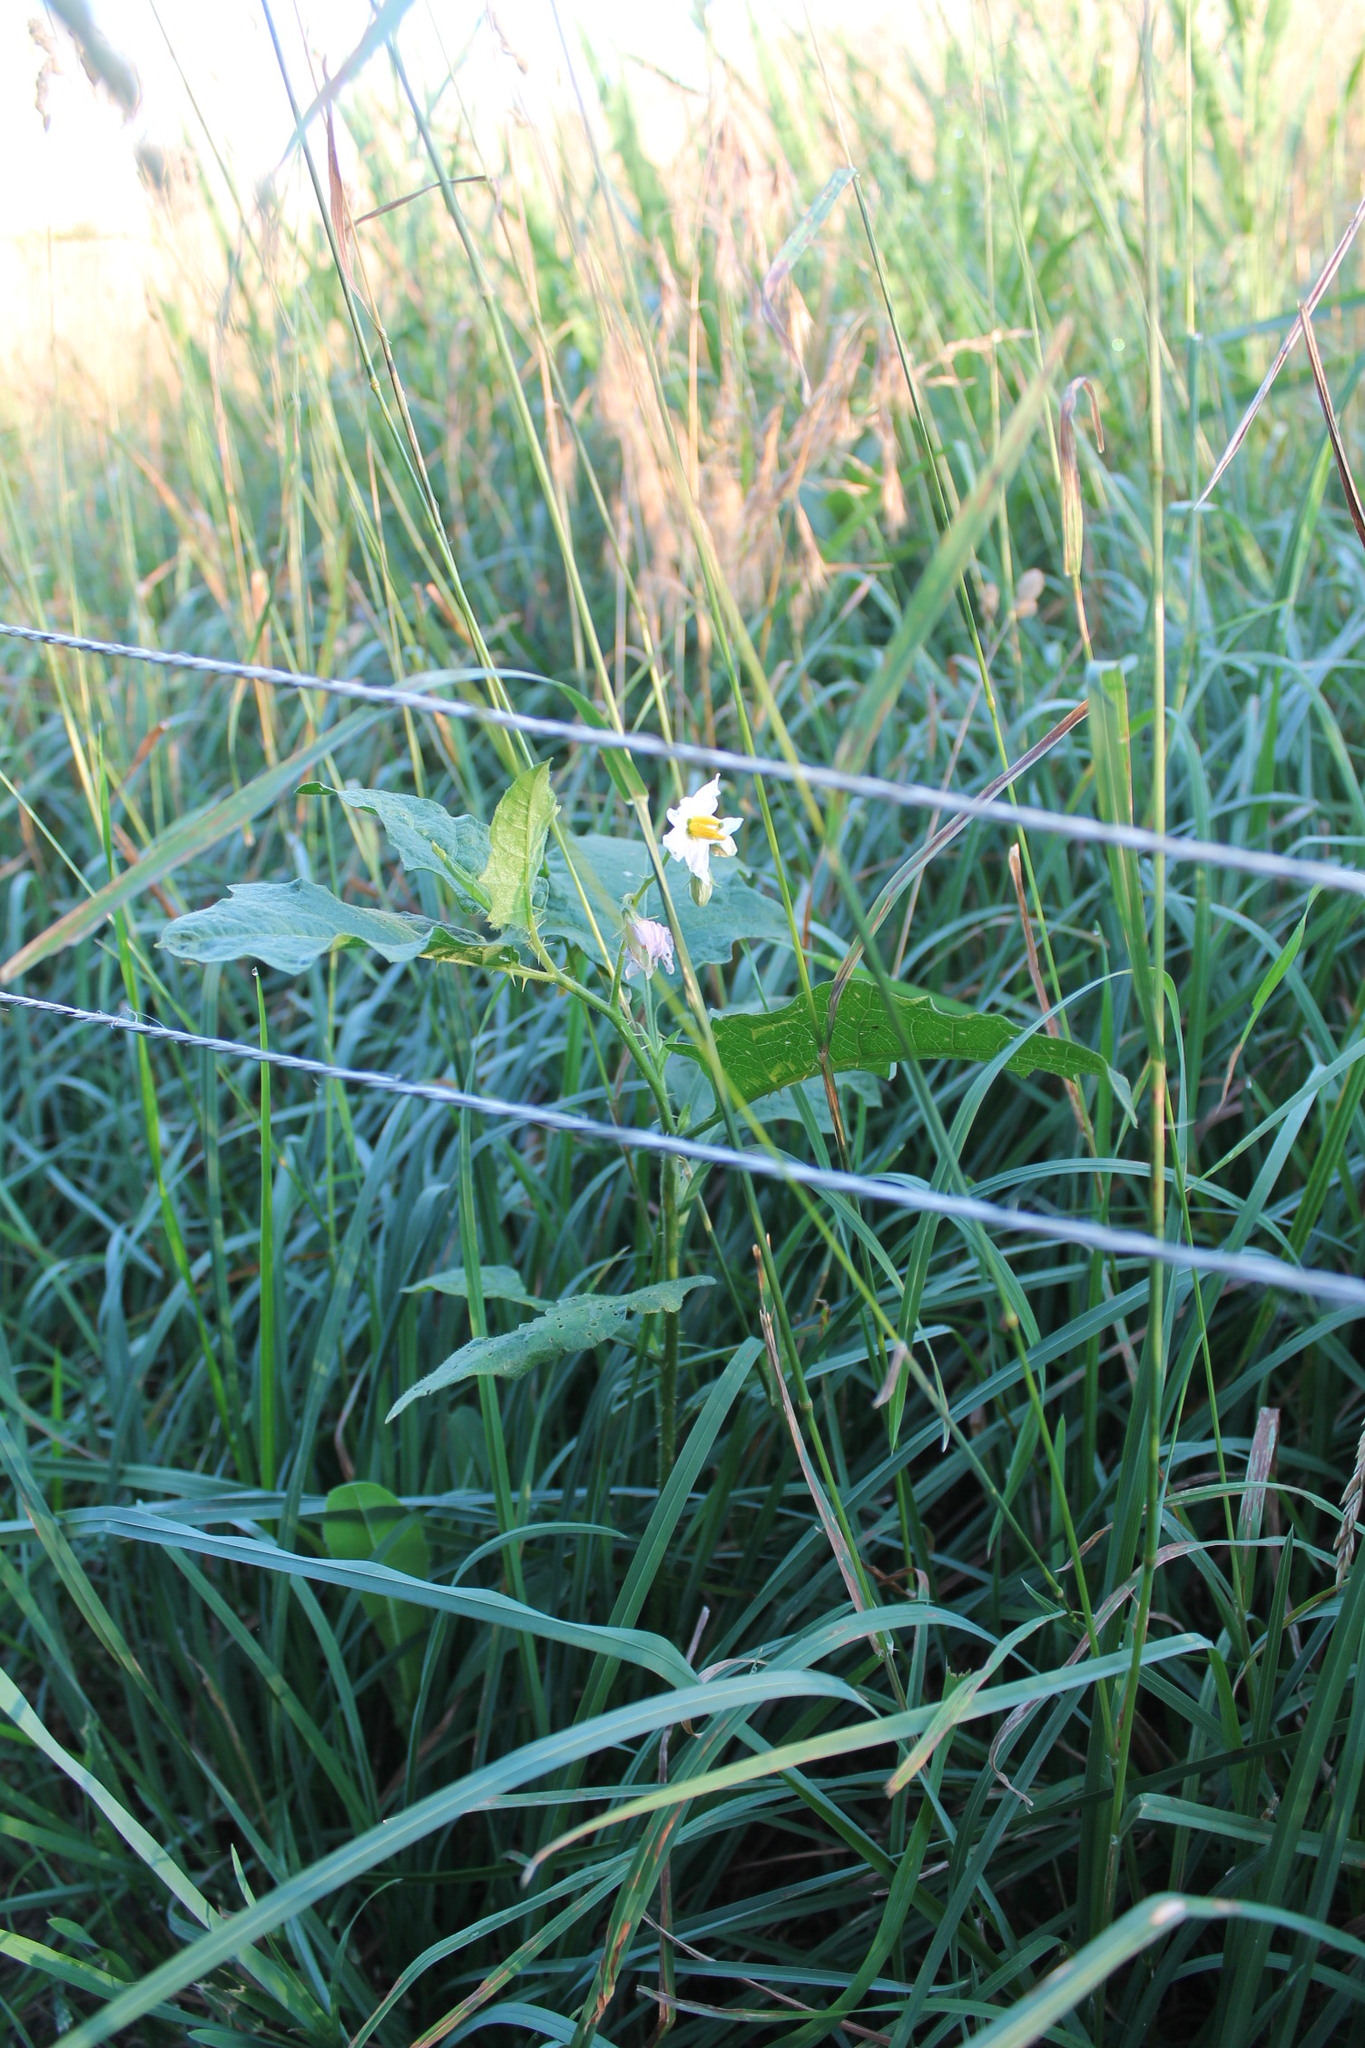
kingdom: Plantae
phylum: Tracheophyta
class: Magnoliopsida
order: Solanales
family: Solanaceae
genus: Solanum
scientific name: Solanum carolinense
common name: Horse-nettle
